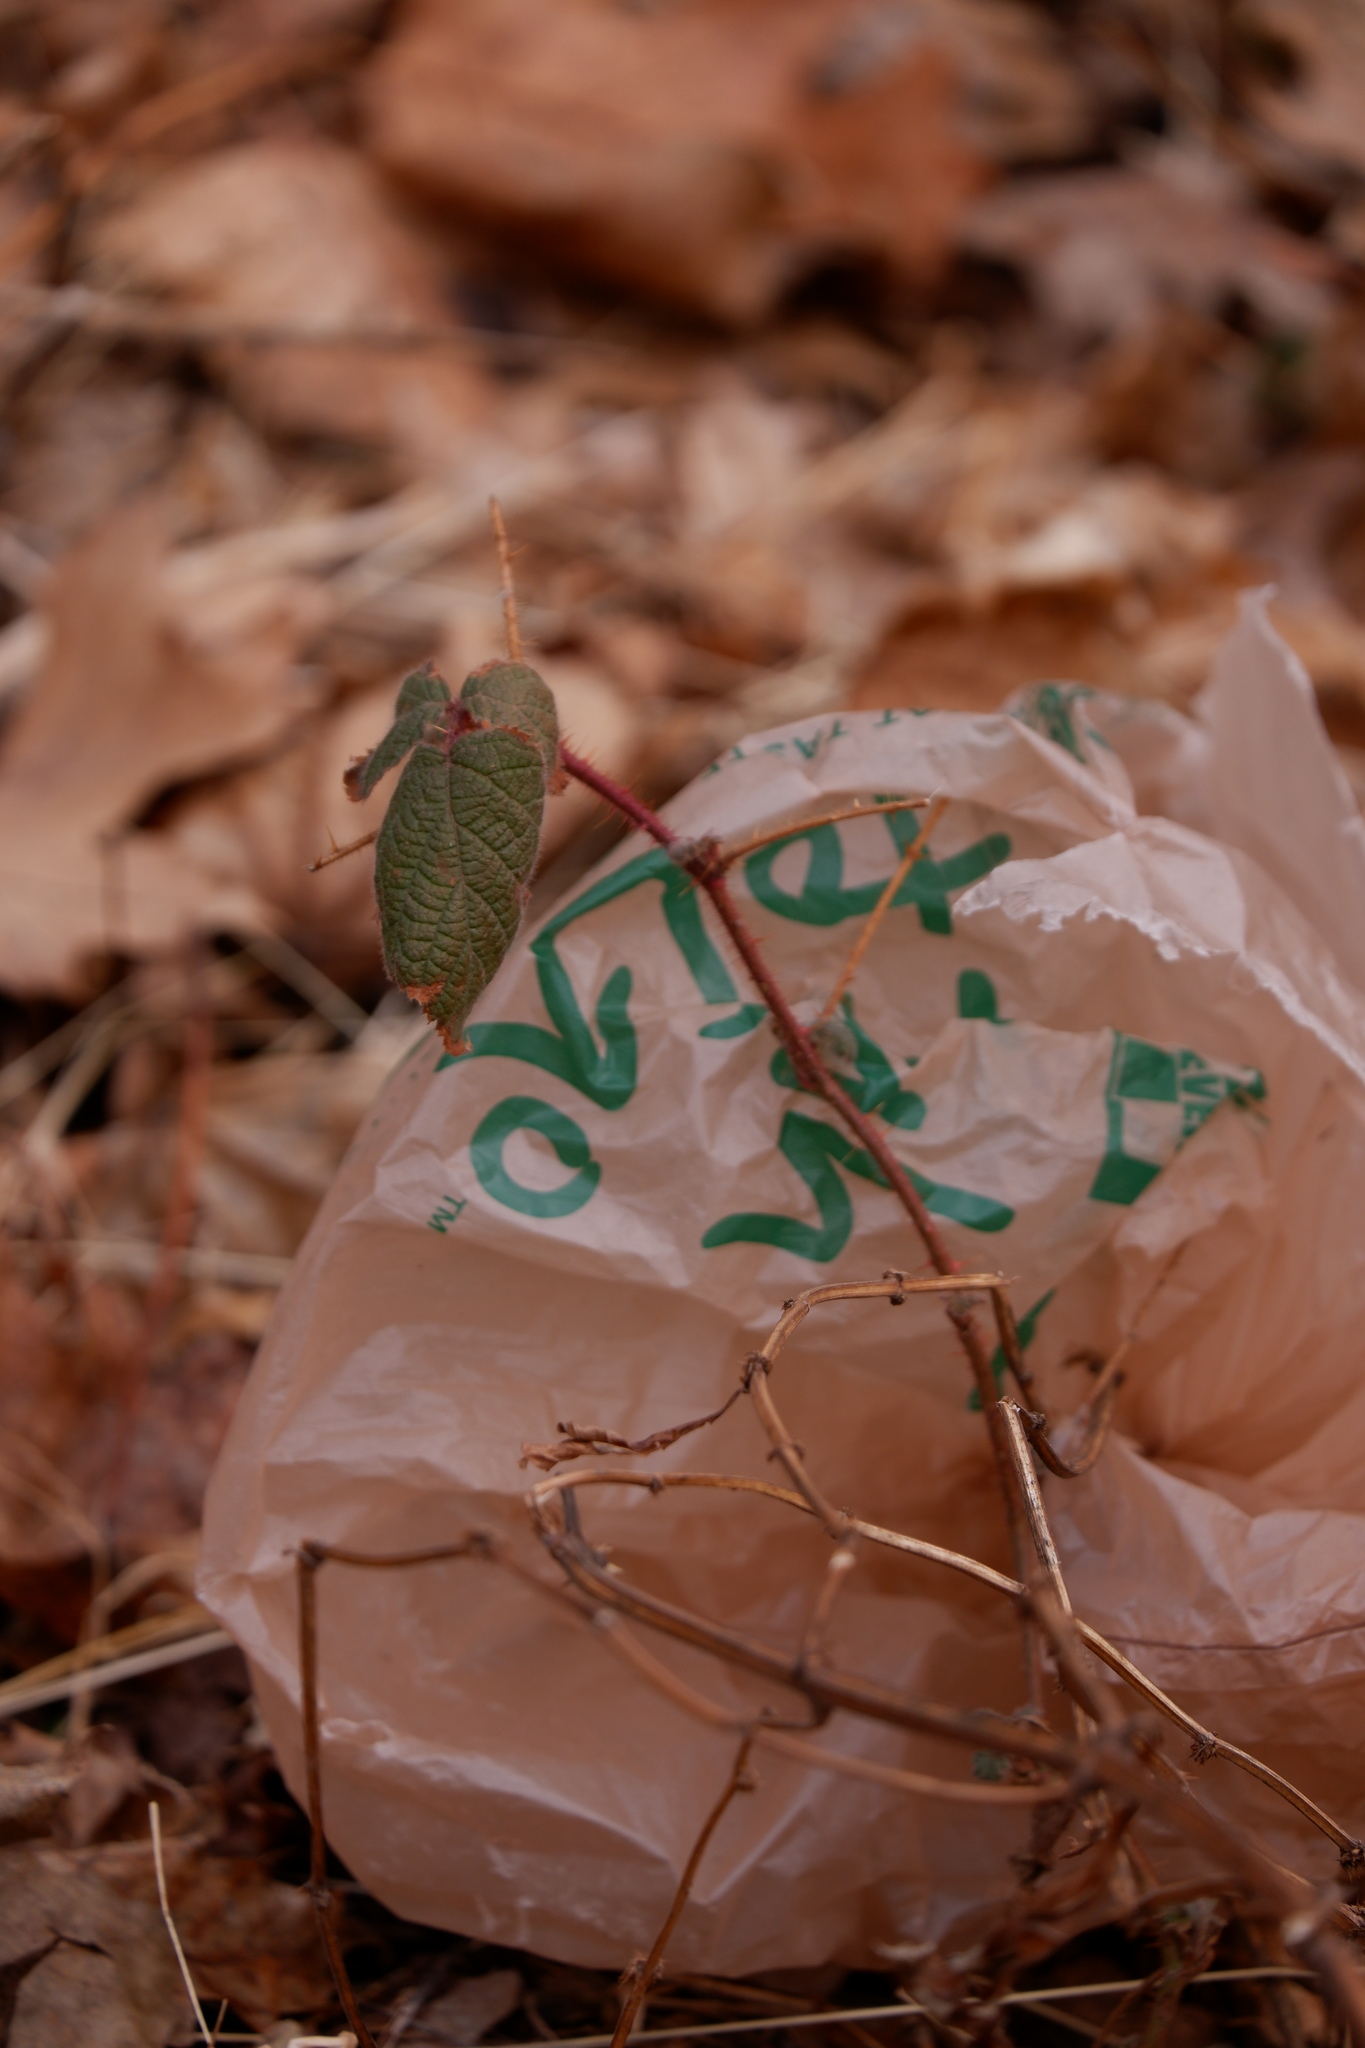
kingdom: Plantae
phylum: Tracheophyta
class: Magnoliopsida
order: Rosales
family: Rosaceae
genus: Rubus
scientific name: Rubus phoenicolasius
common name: Japanese wineberry
